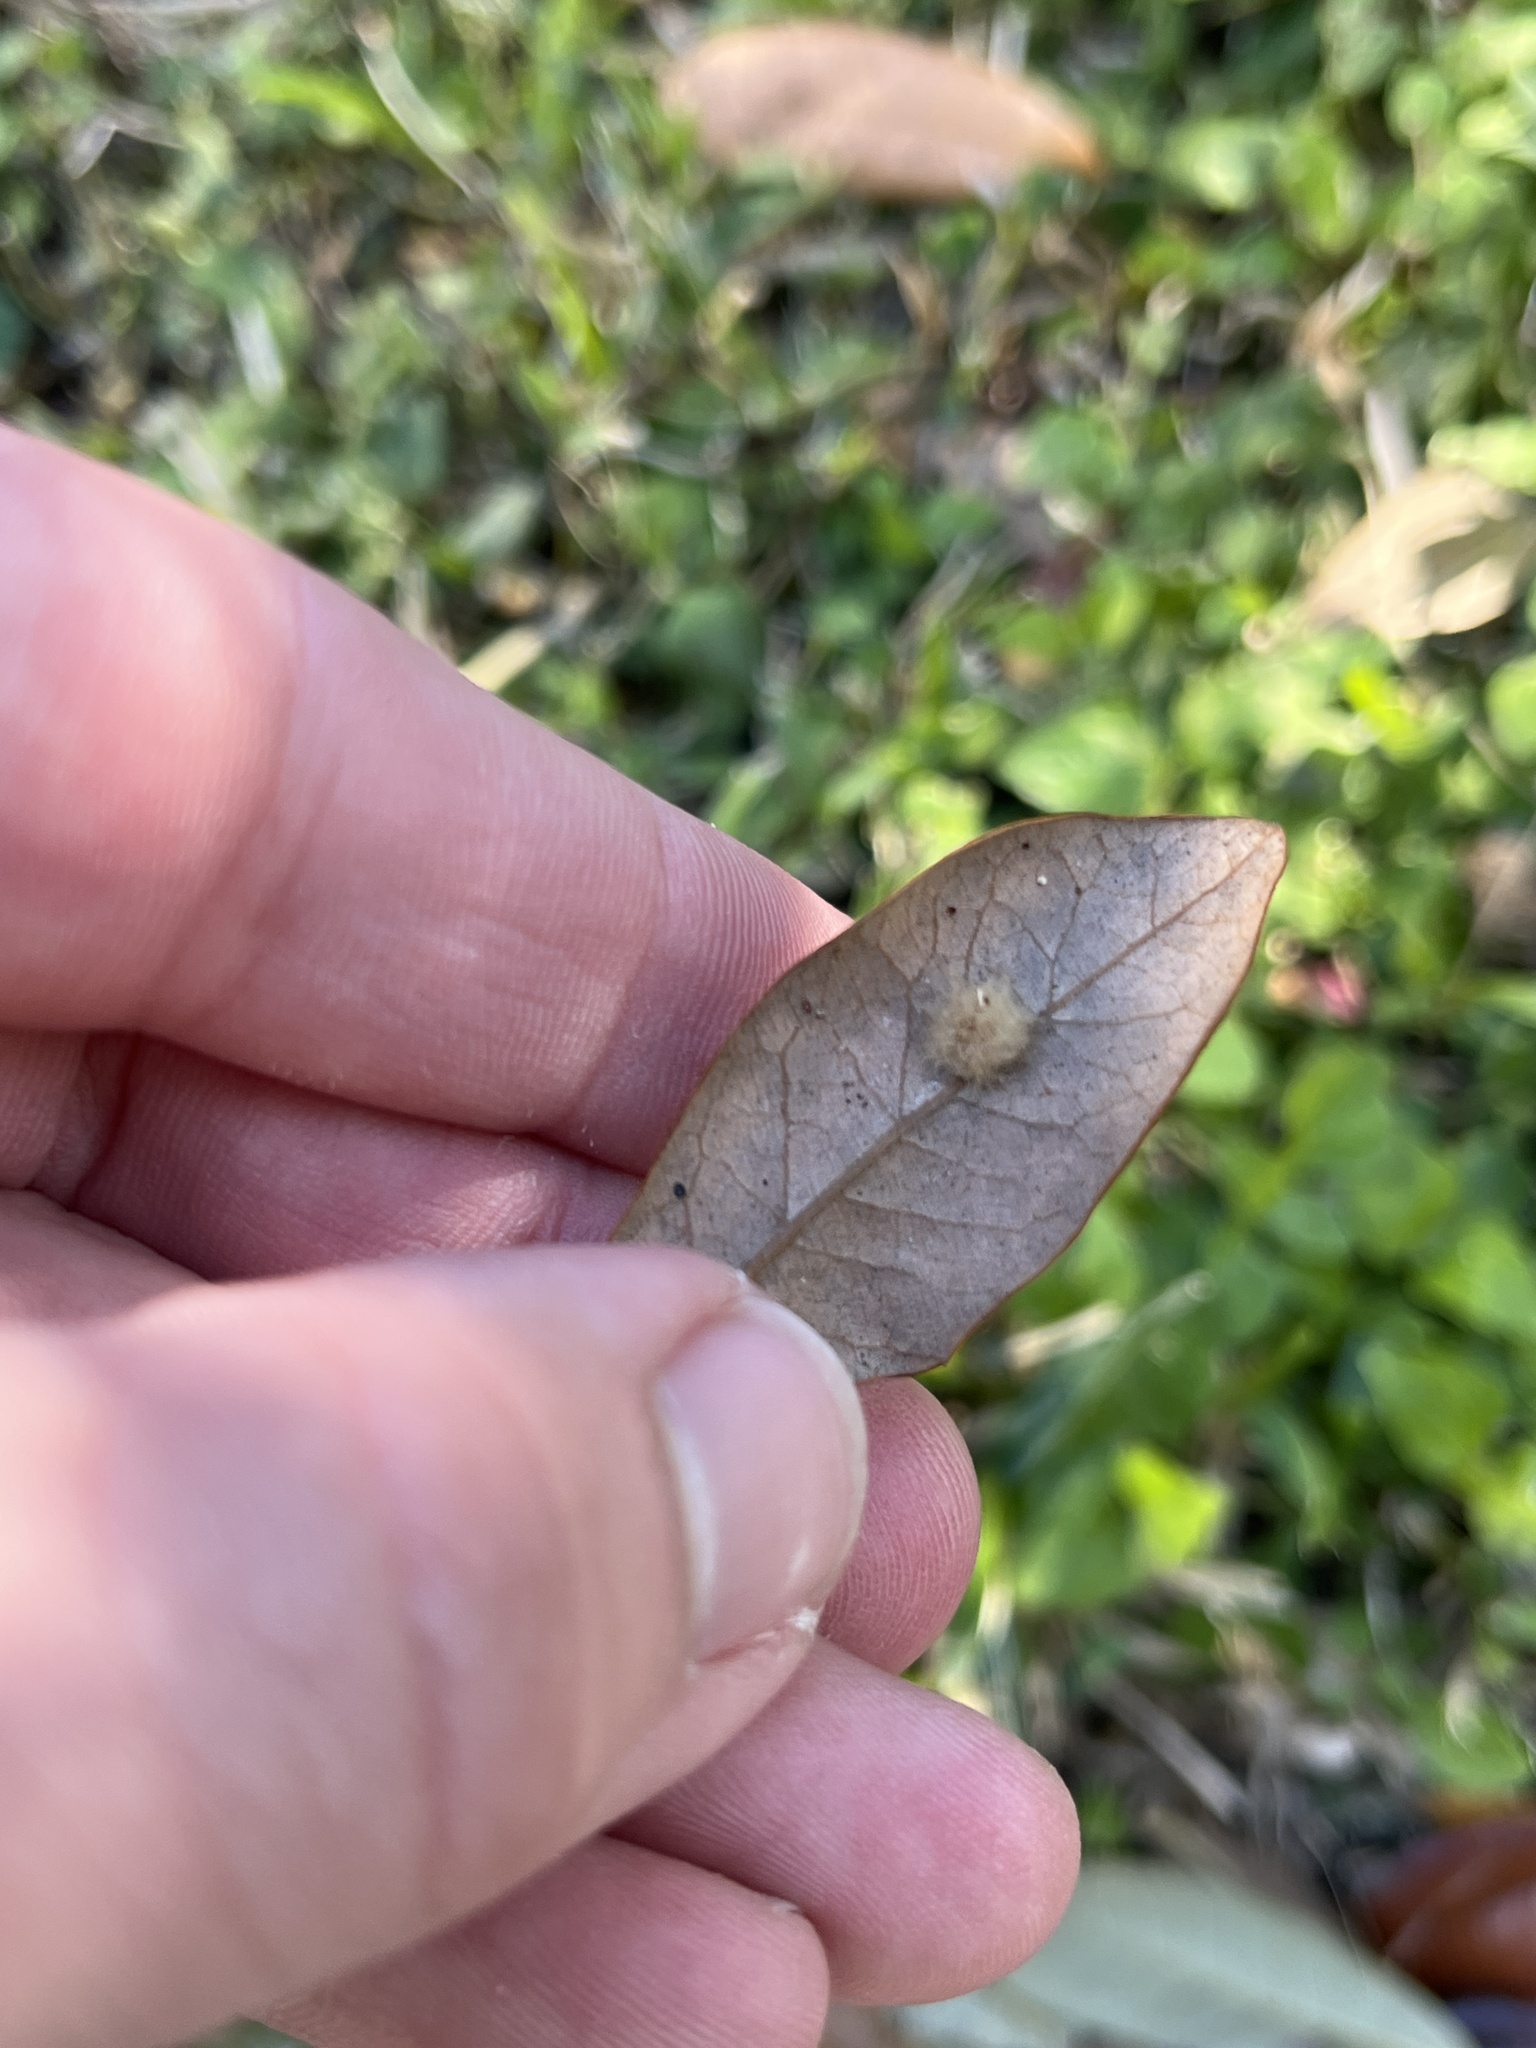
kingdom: Animalia
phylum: Arthropoda
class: Insecta
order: Hymenoptera
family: Cynipidae
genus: Andricus
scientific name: Andricus Druon quercuslanigerum
